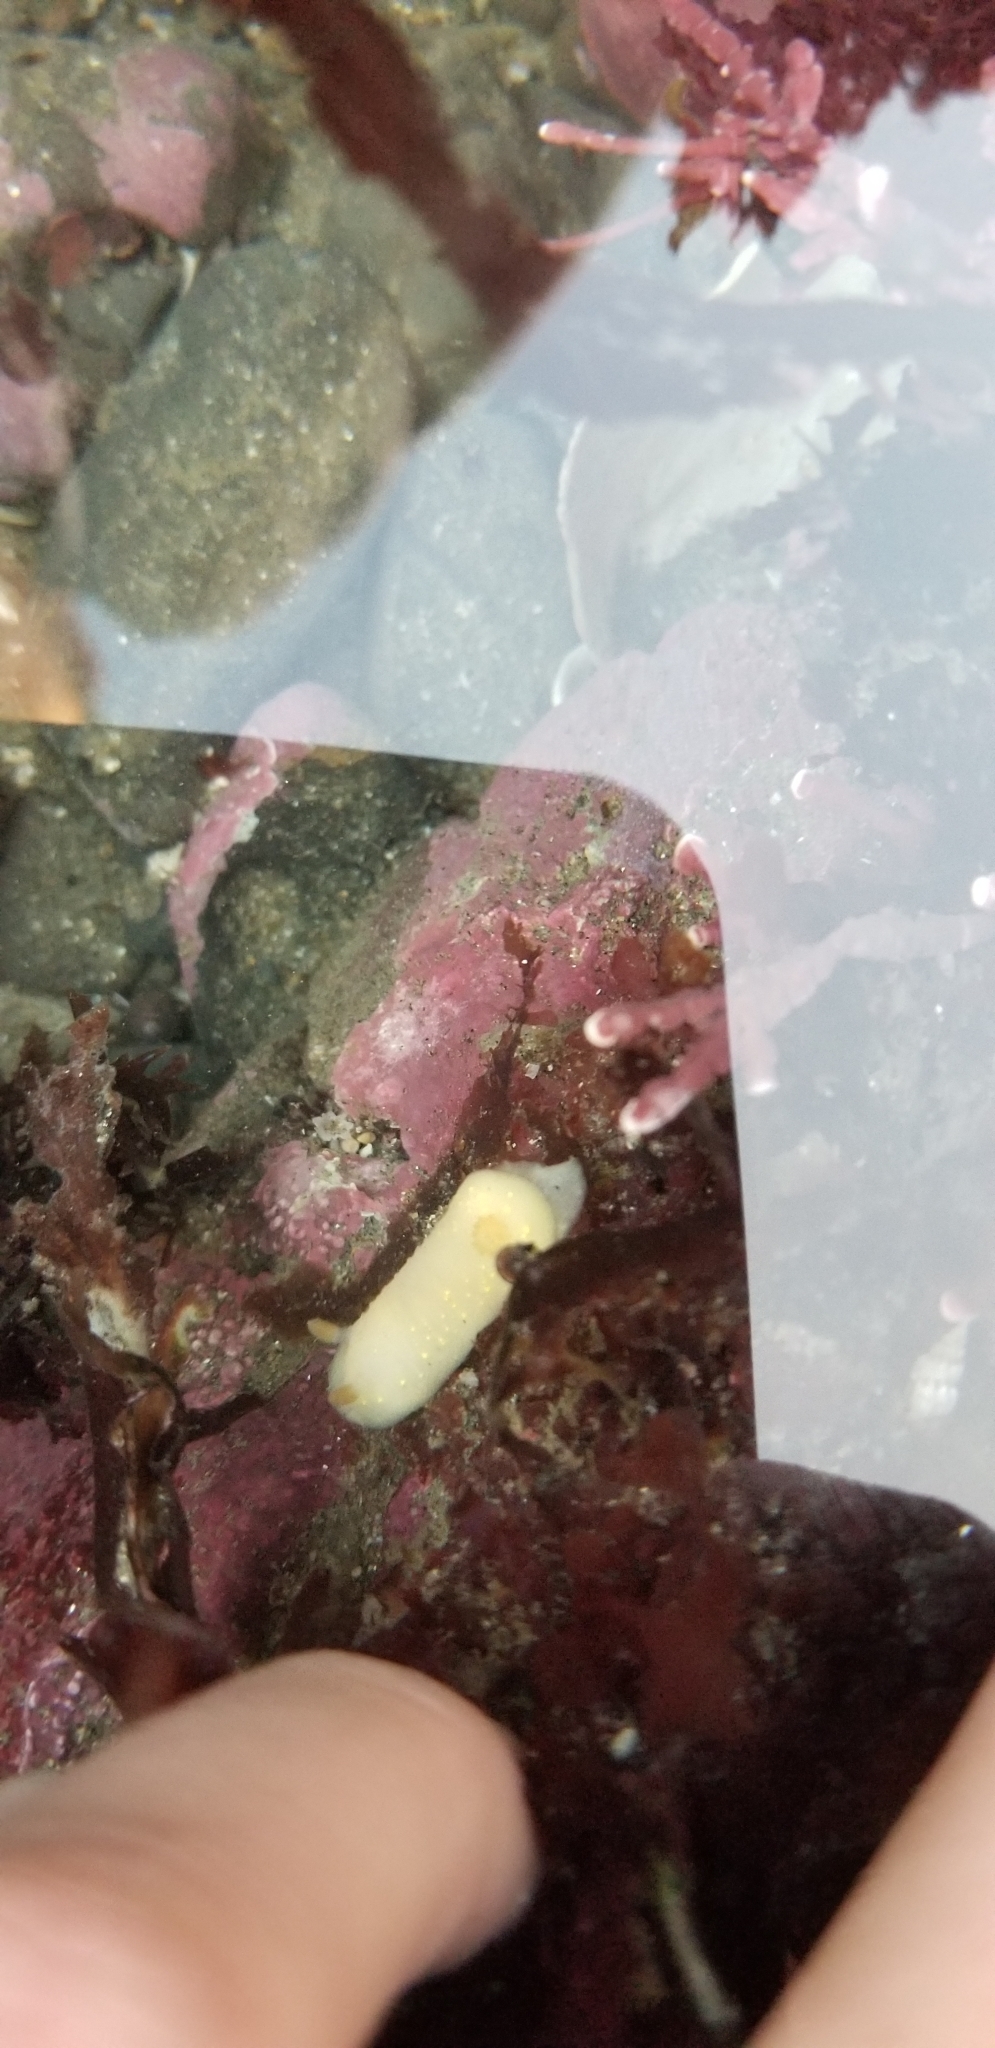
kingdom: Animalia
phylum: Mollusca
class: Gastropoda
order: Nudibranchia
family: Cadlinidae
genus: Cadlina
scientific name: Cadlina modesta
